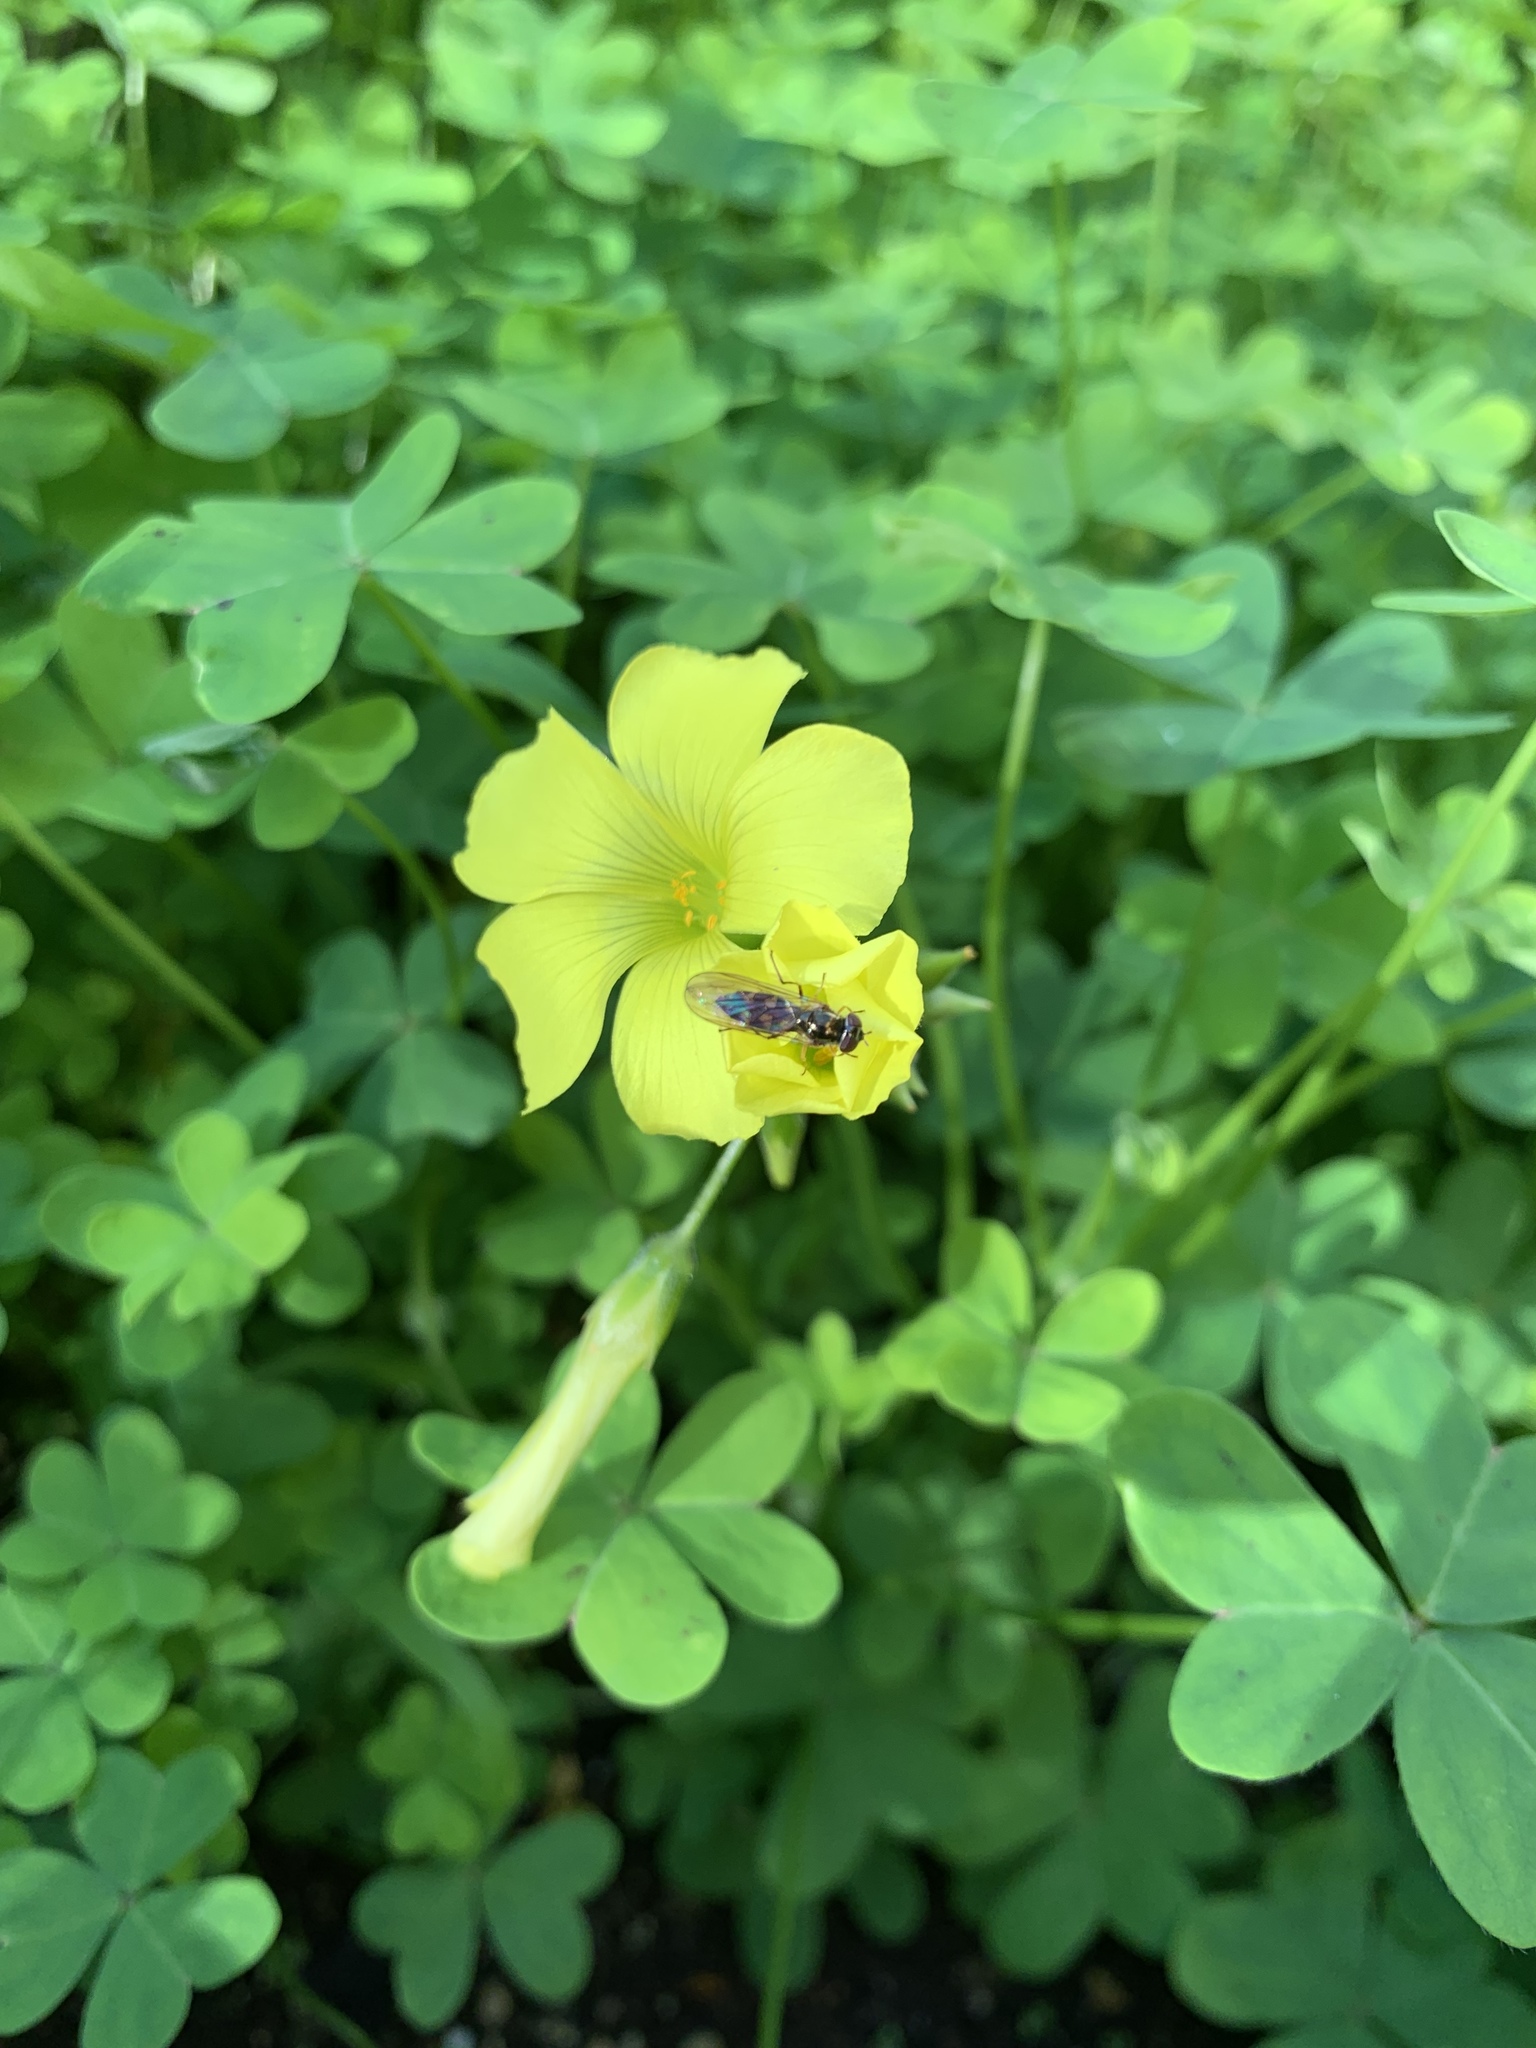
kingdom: Plantae
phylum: Tracheophyta
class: Magnoliopsida
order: Oxalidales
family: Oxalidaceae
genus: Oxalis
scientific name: Oxalis pes-caprae
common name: Bermuda-buttercup
